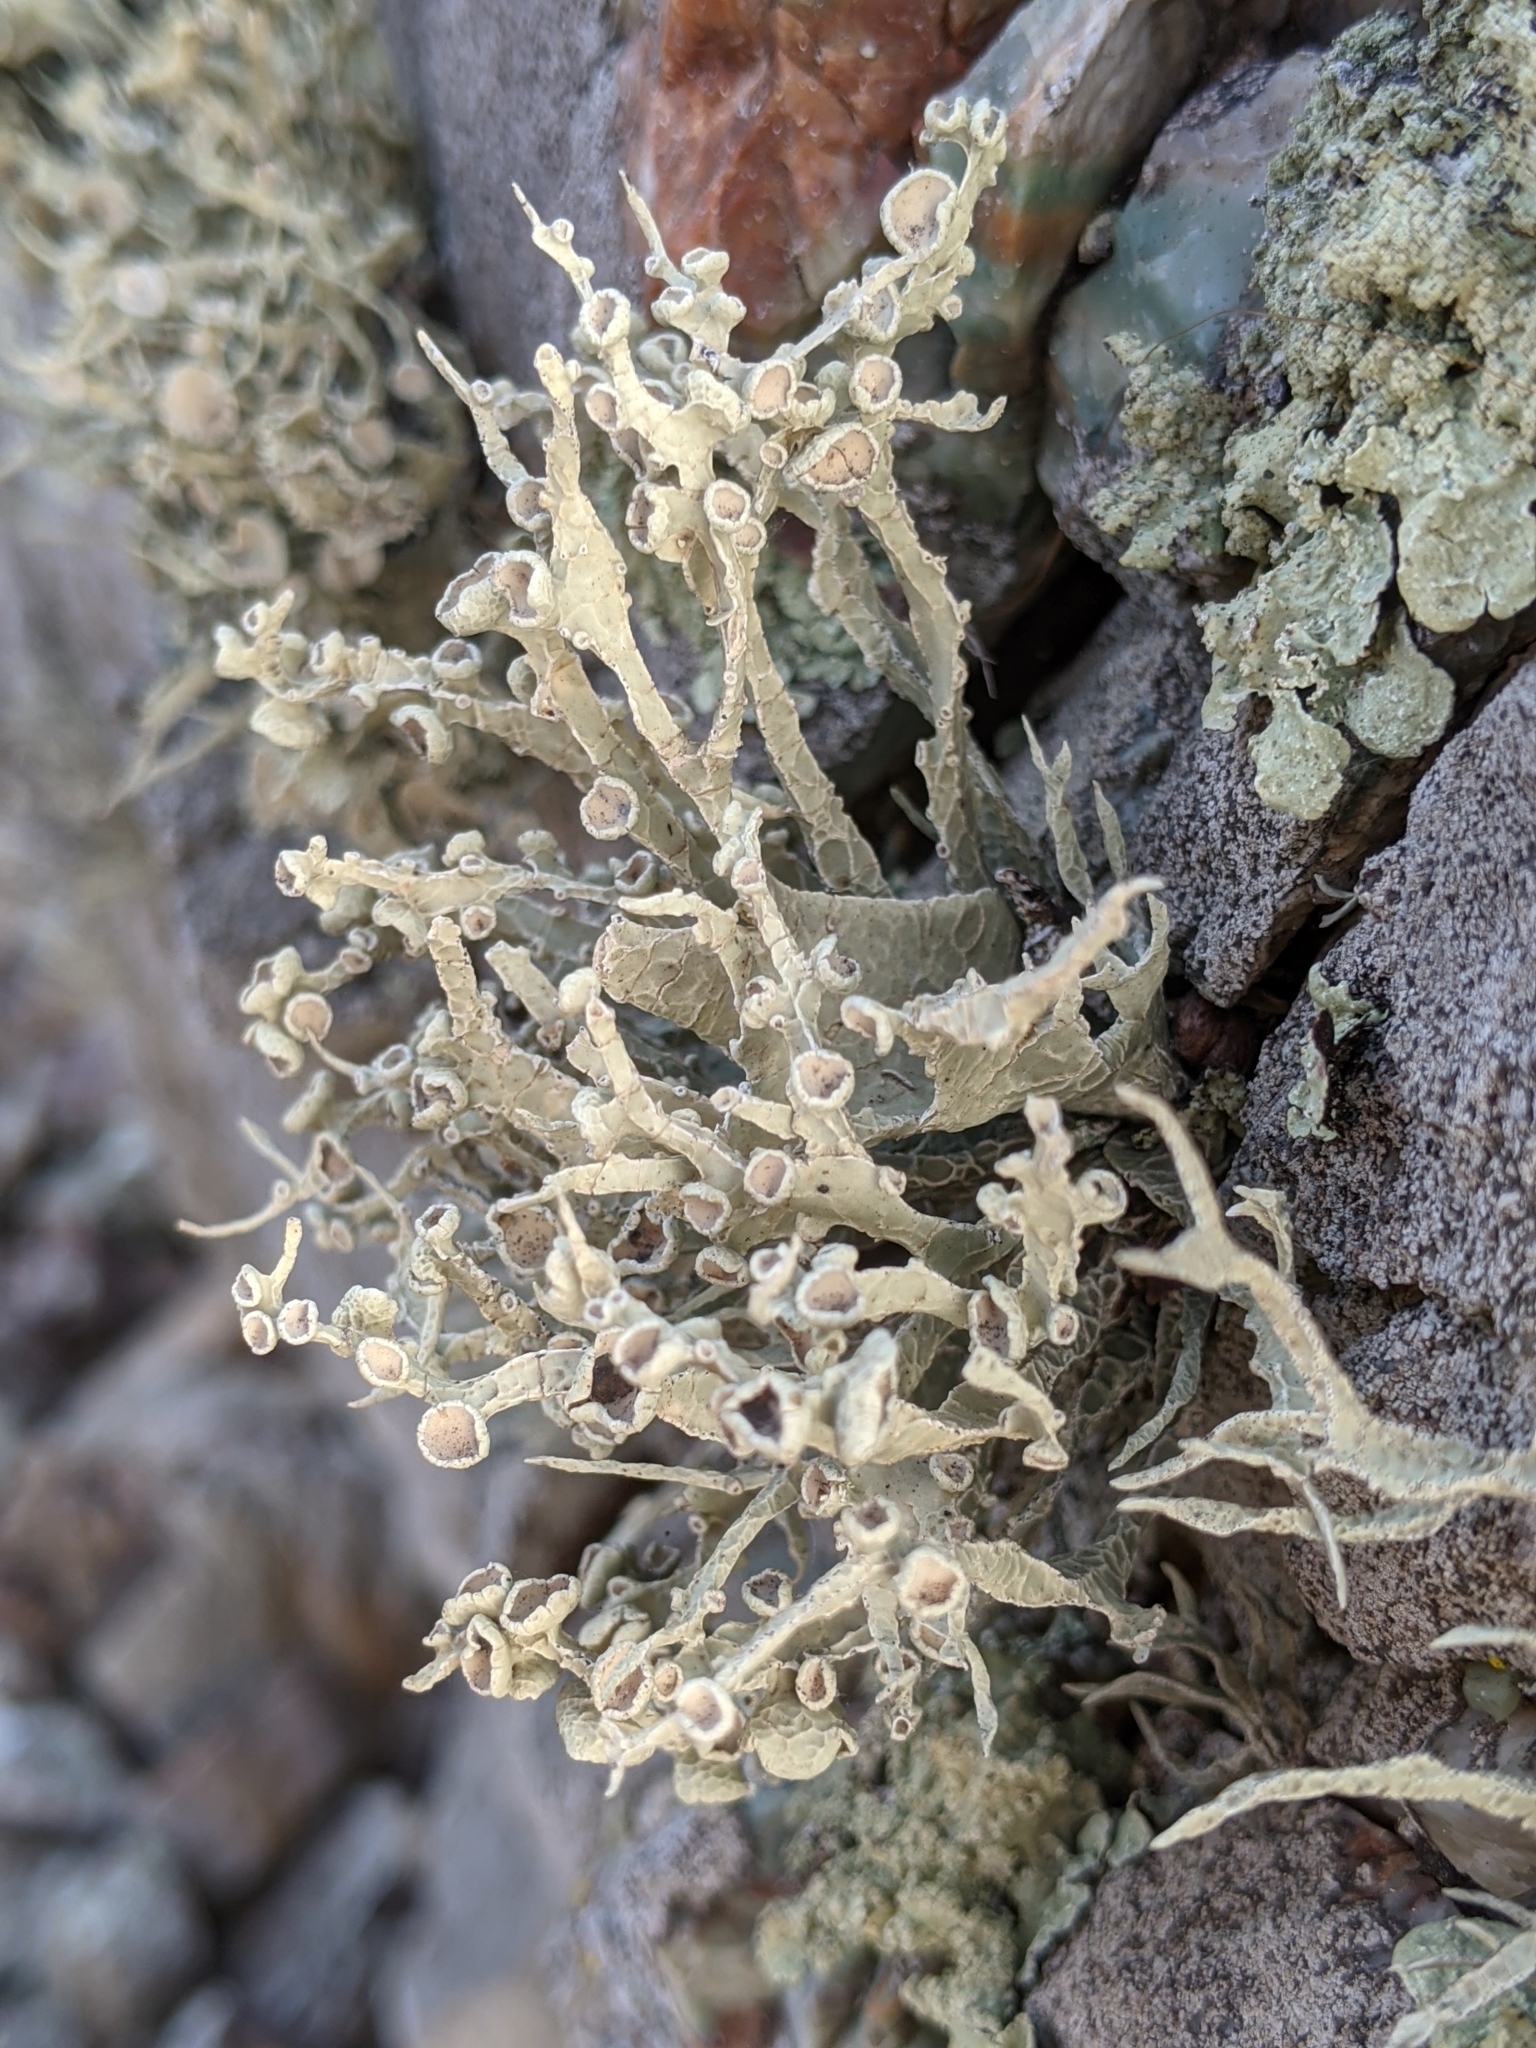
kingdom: Fungi
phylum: Ascomycota
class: Lecanoromycetes
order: Lecanorales
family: Ramalinaceae
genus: Niebla
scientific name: Niebla homalea
